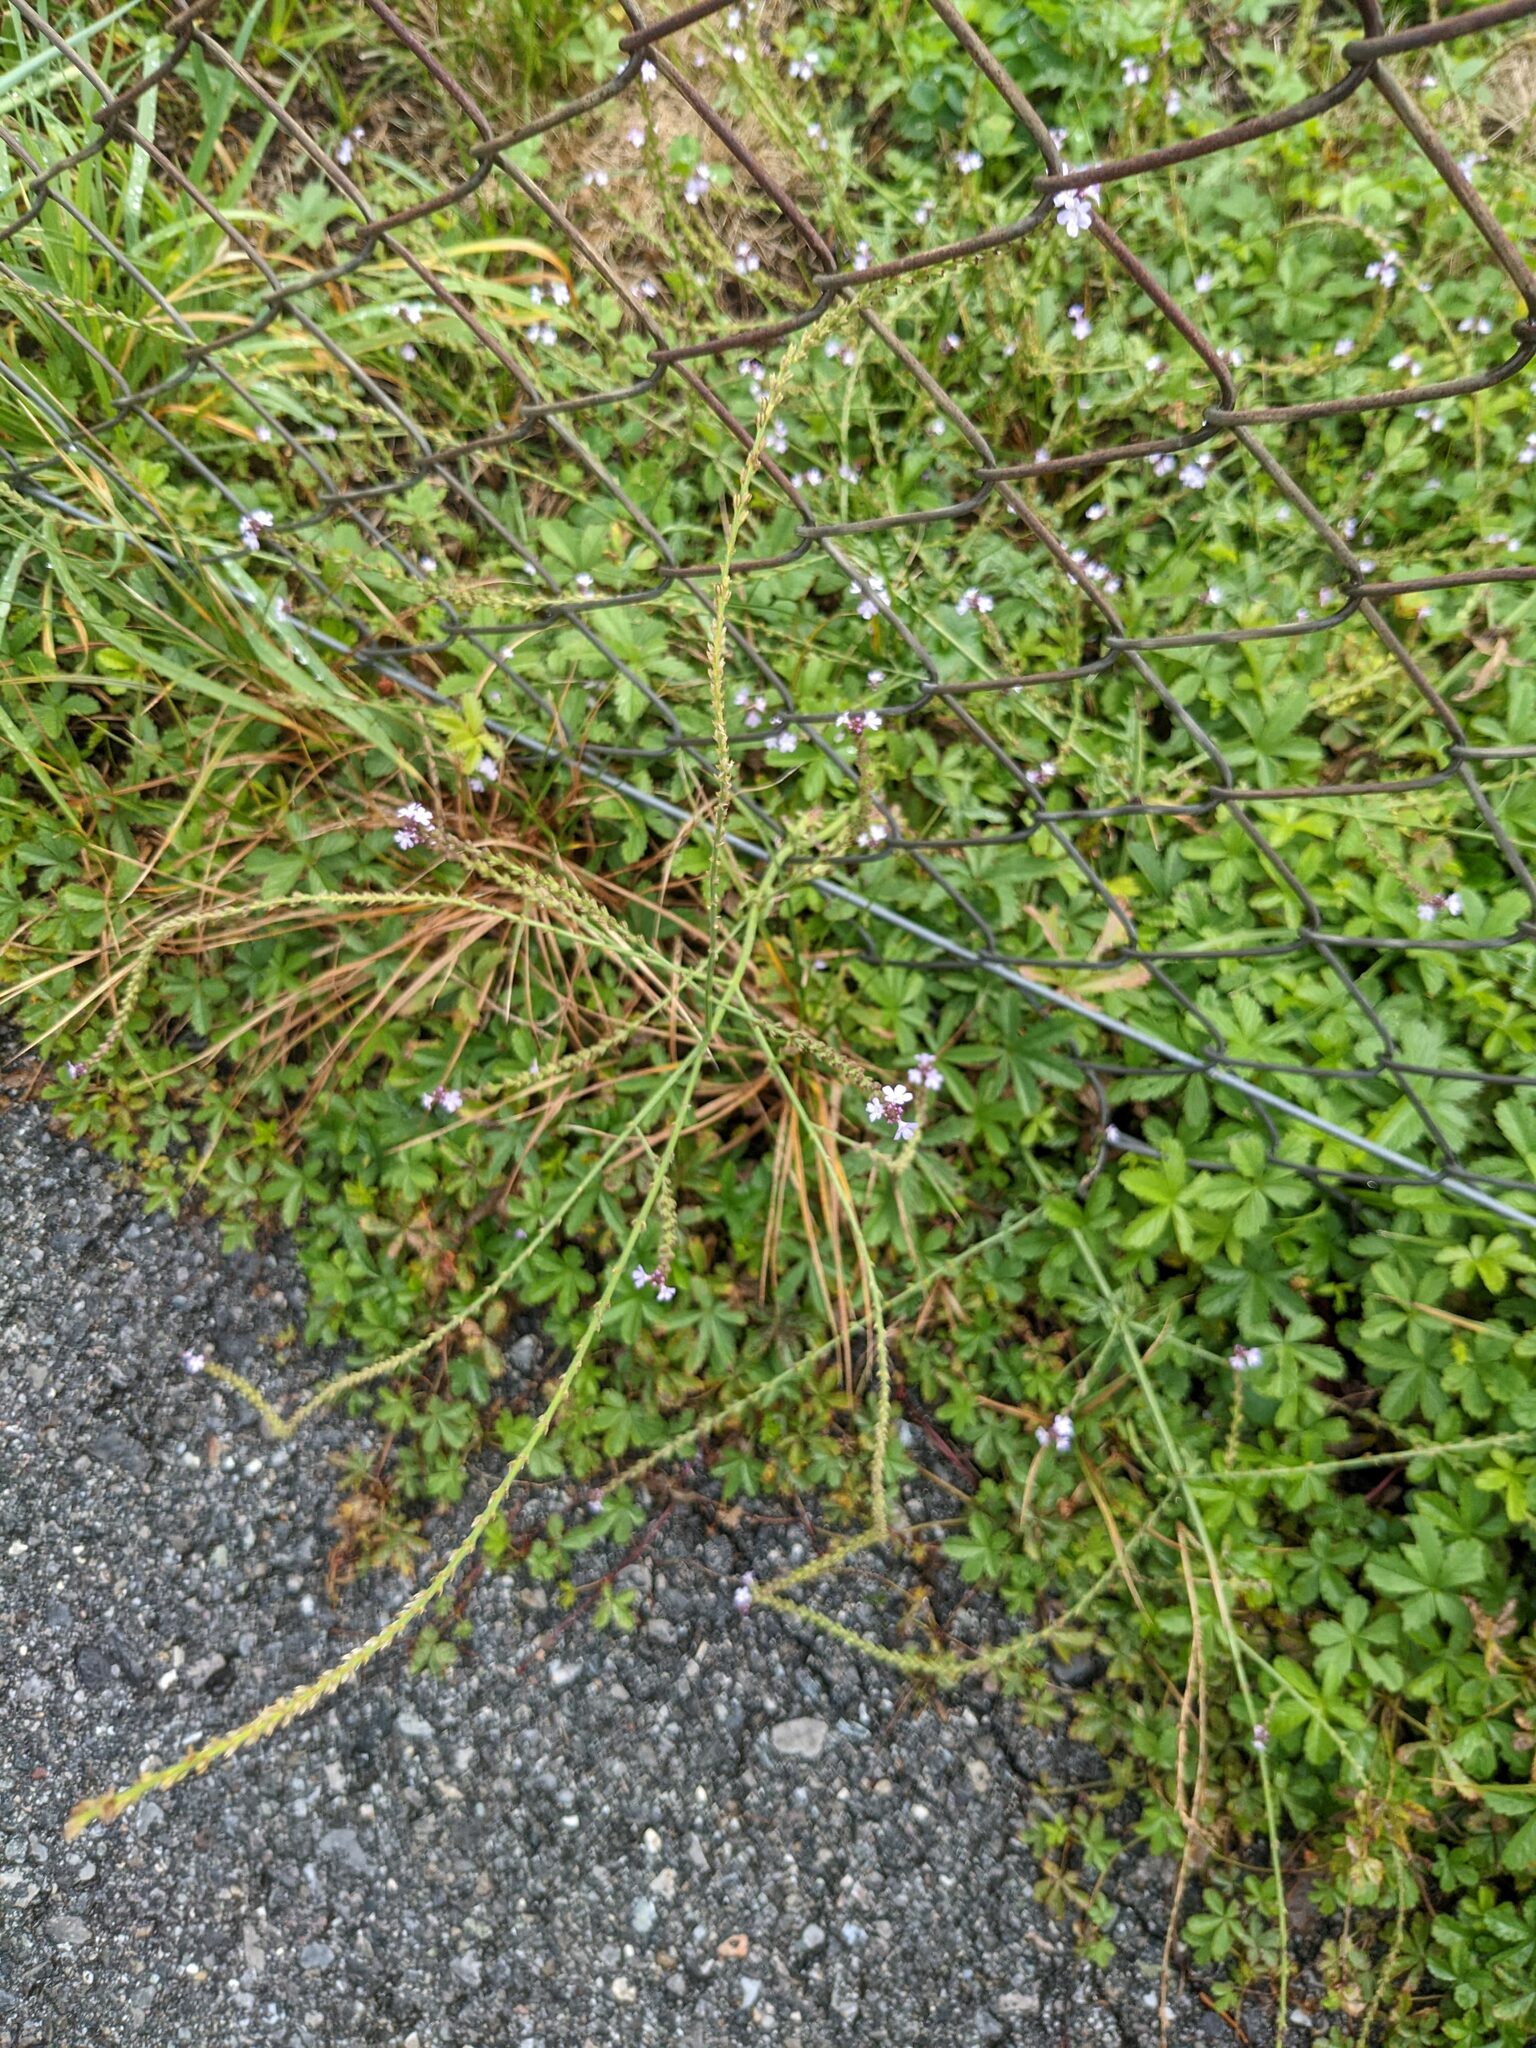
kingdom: Plantae
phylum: Tracheophyta
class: Magnoliopsida
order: Lamiales
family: Verbenaceae
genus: Verbena
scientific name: Verbena officinalis
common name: Vervain
